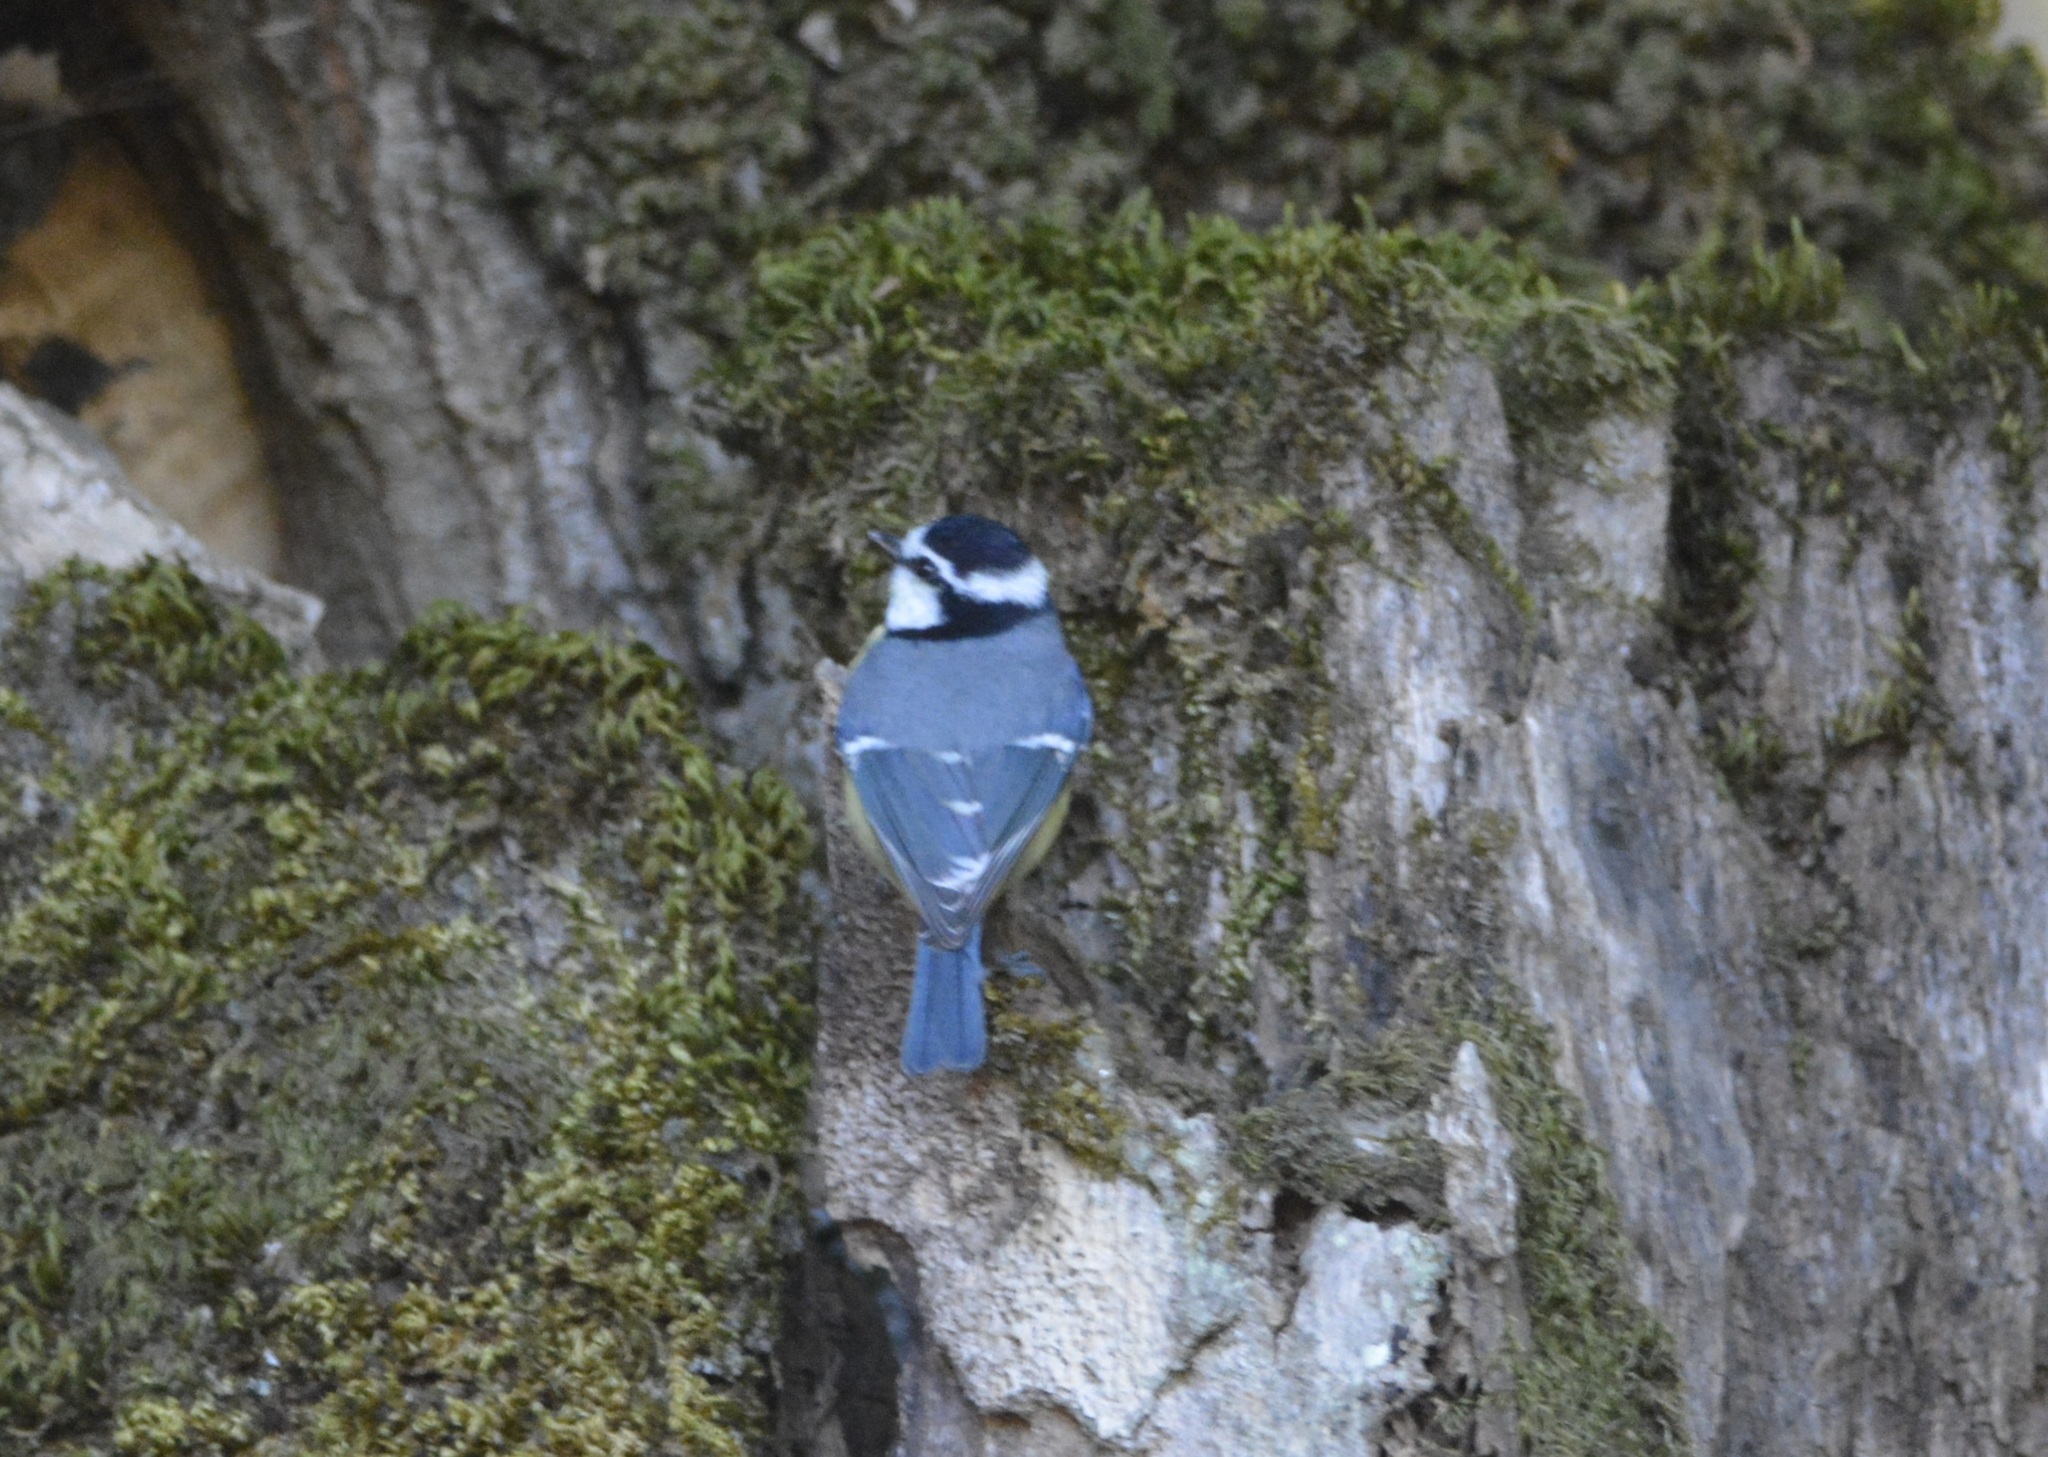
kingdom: Animalia
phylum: Chordata
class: Aves
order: Passeriformes
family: Paridae
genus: Cyanistes
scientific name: Cyanistes teneriffae
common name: African blue tit
